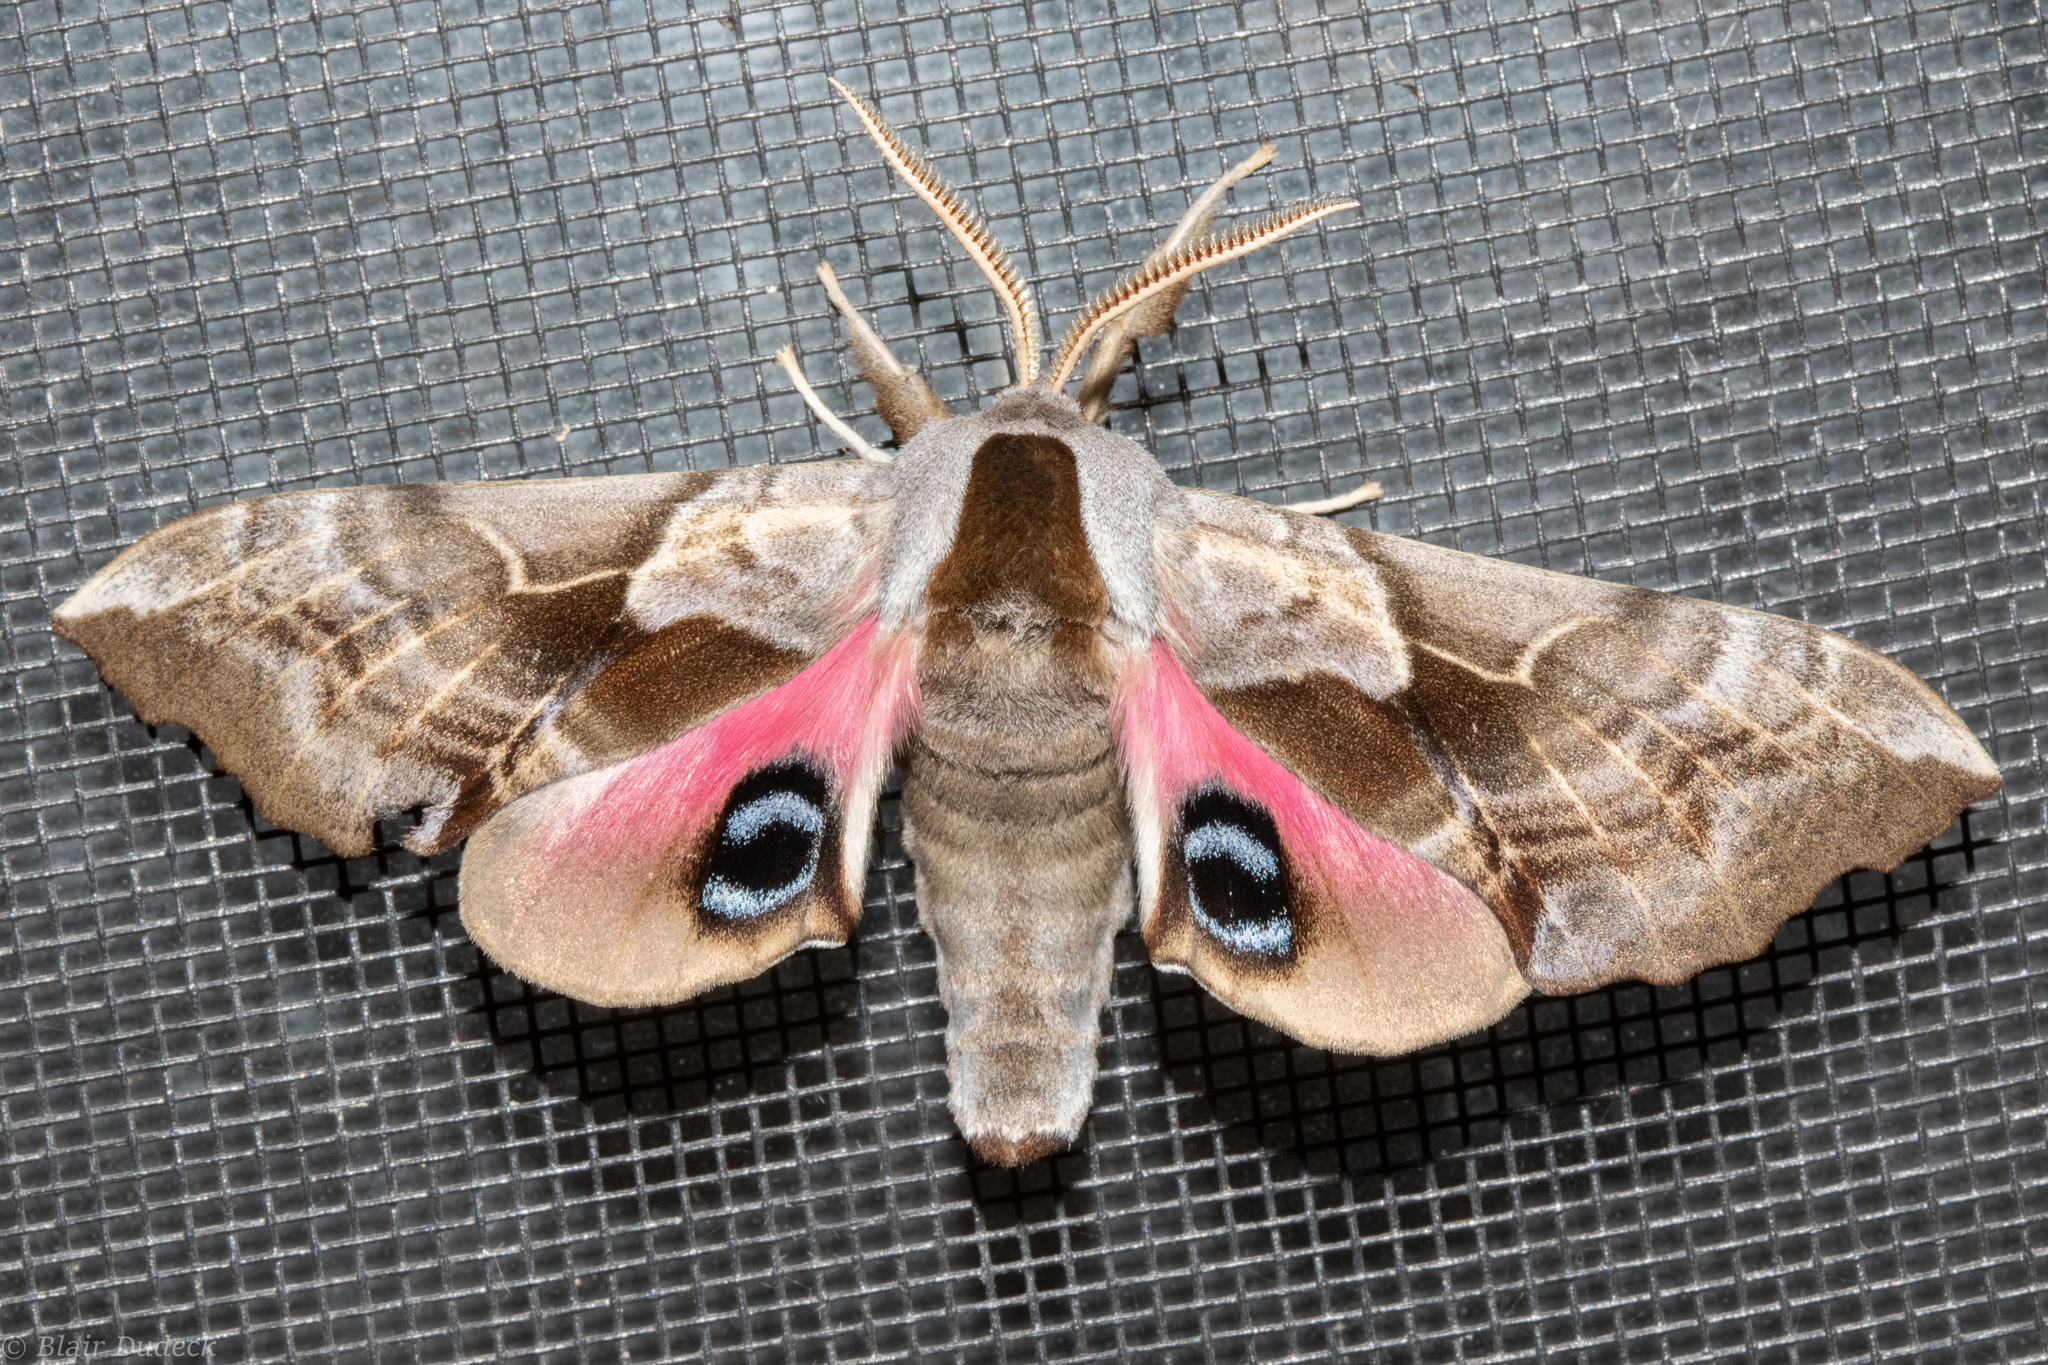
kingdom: Animalia
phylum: Arthropoda
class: Insecta
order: Lepidoptera
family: Sphingidae
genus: Smerinthus
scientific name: Smerinthus cerisyi
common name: Cerisy's sphinx moth
